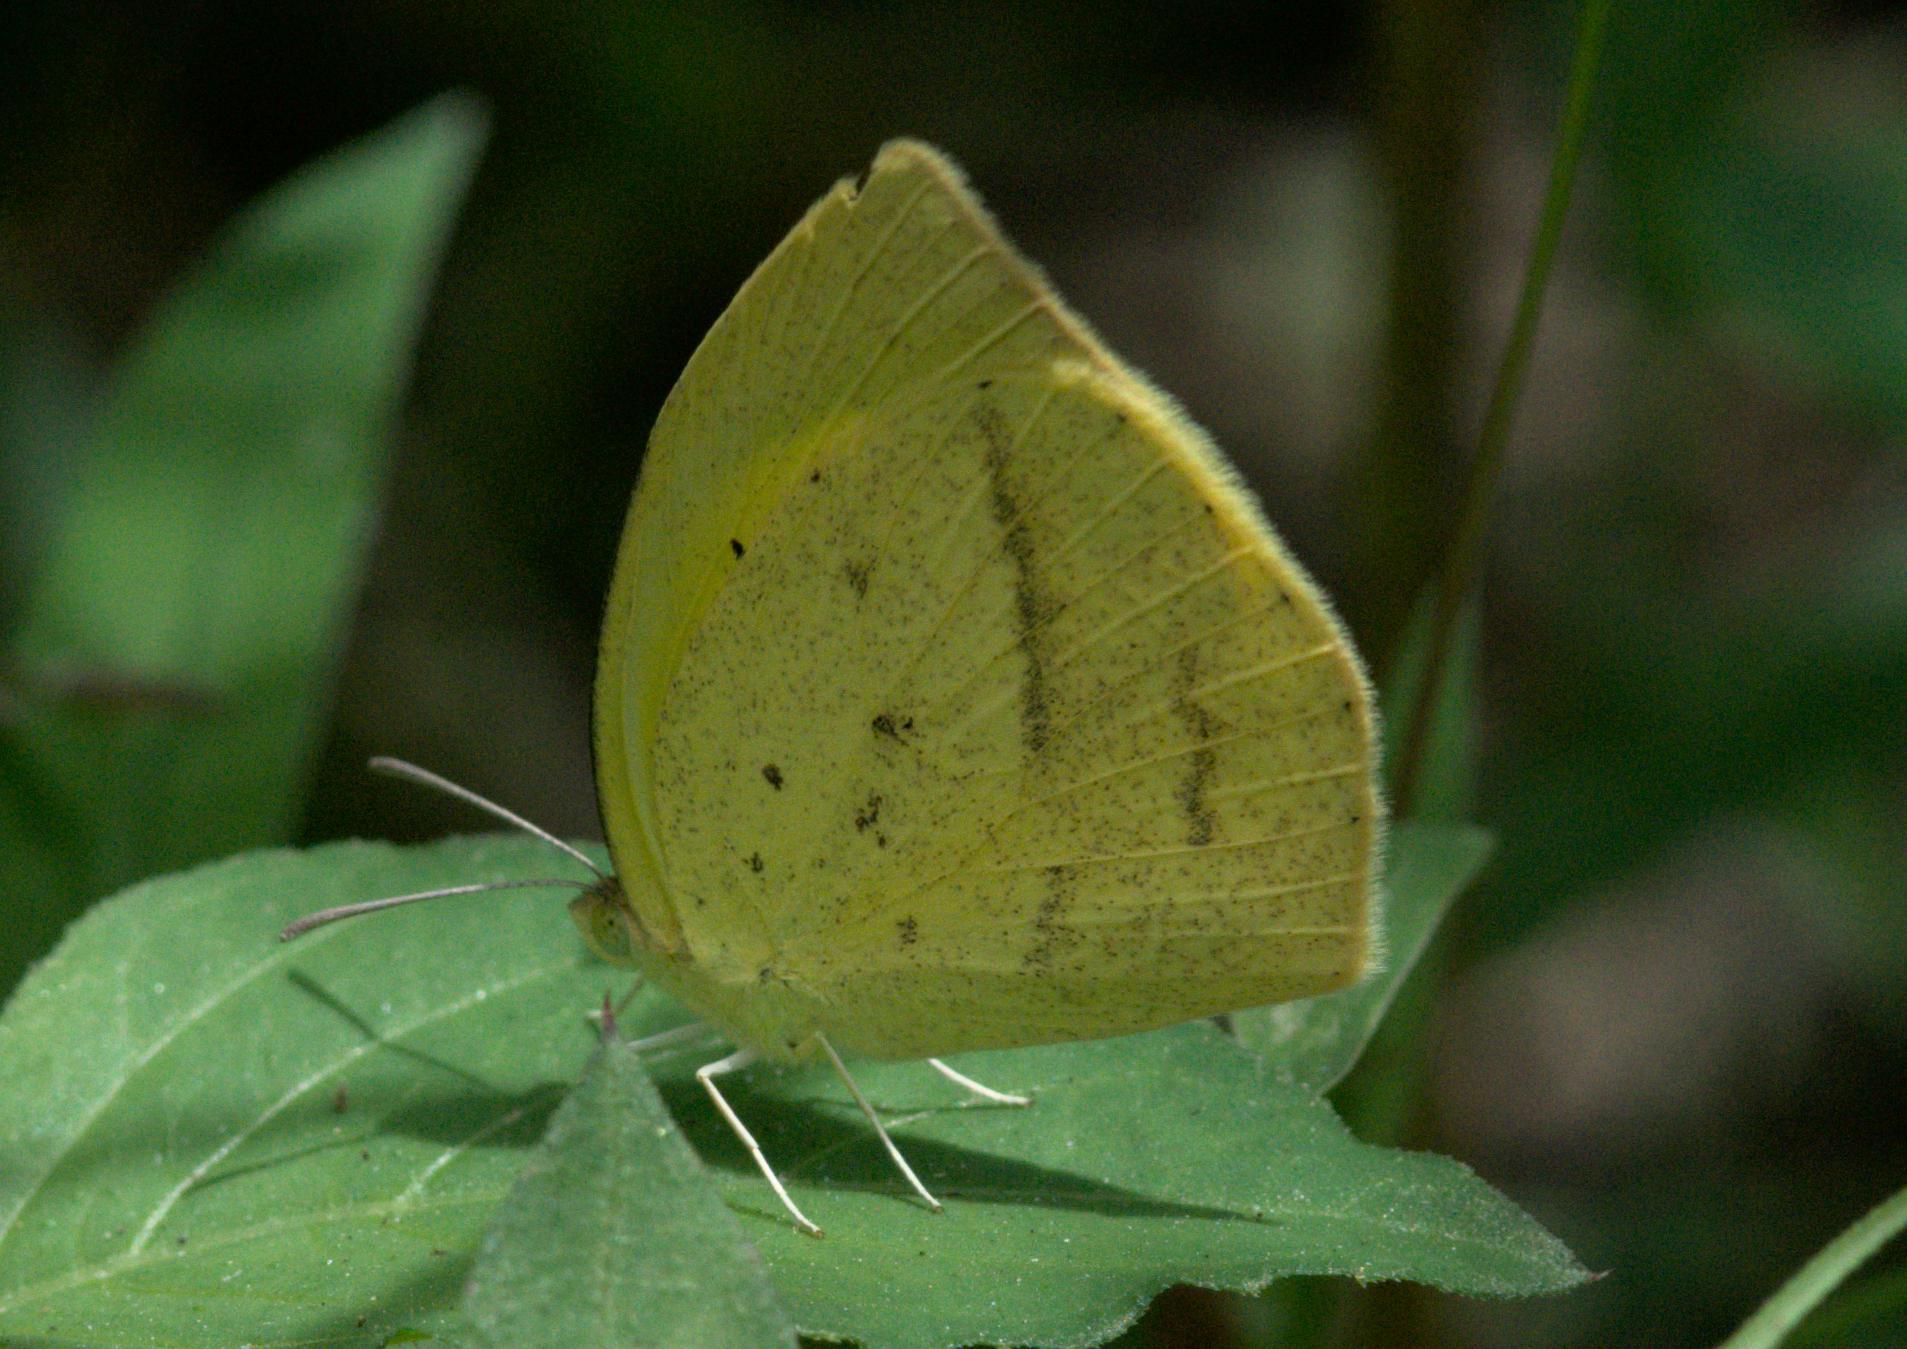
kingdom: Animalia
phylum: Arthropoda
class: Insecta
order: Lepidoptera
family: Pieridae
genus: Eurema
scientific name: Eurema laeta
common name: Spotless grass yellow
